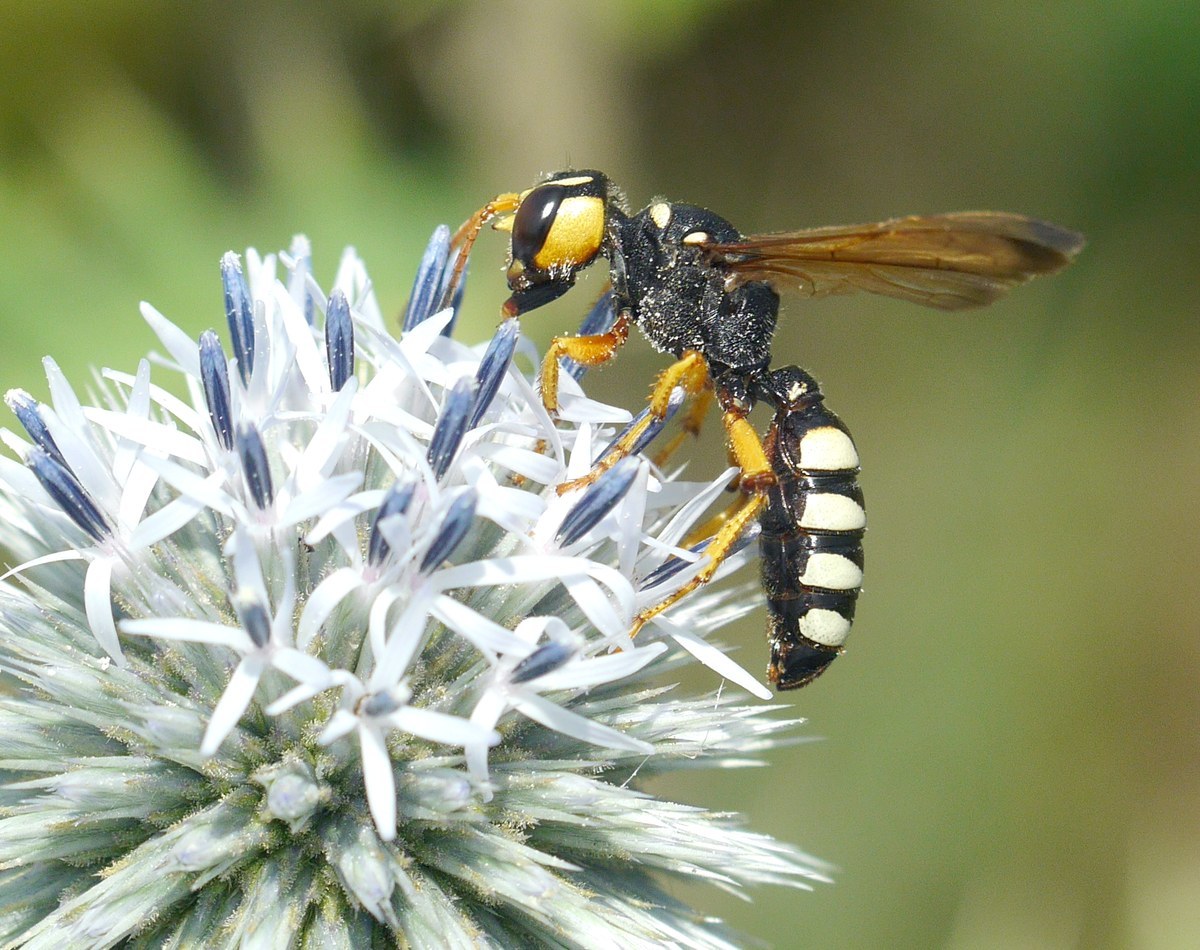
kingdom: Animalia
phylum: Arthropoda
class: Insecta
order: Hymenoptera
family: Crabronidae
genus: Cerceris
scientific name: Cerceris tuberculata
